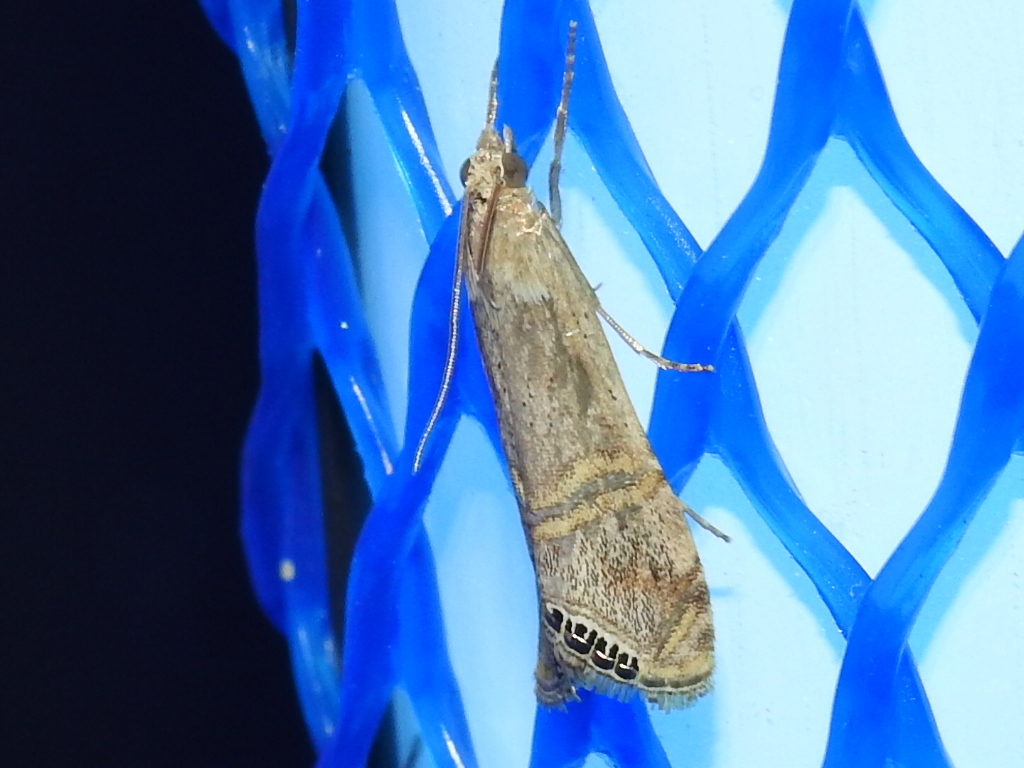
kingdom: Animalia
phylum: Arthropoda
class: Insecta
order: Lepidoptera
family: Crambidae
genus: Euchromius
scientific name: Euchromius ocellea
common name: Necklace veneer moth
